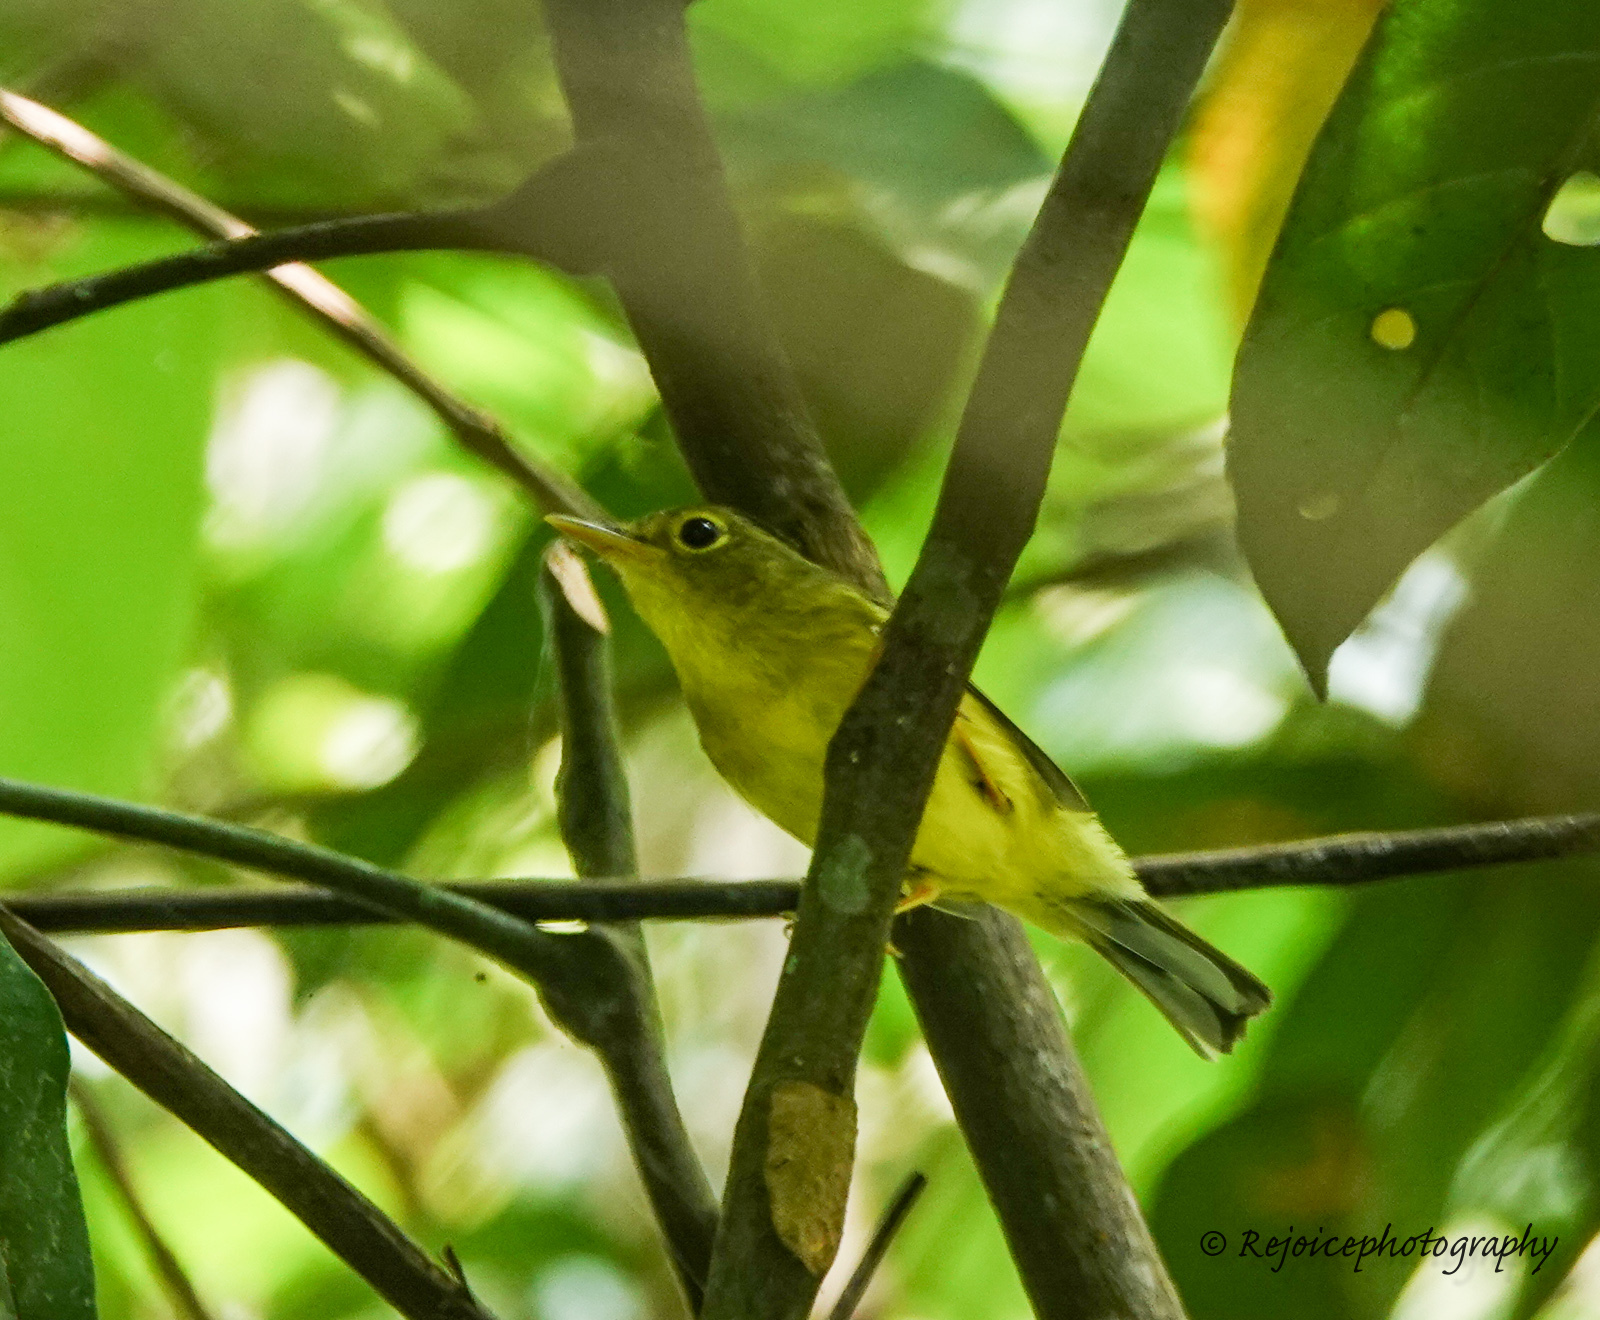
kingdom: Animalia
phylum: Chordata
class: Aves
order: Passeriformes
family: Phylloscopidae
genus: Seicercus
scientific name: Seicercus burkii
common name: Green-crowned warbler
